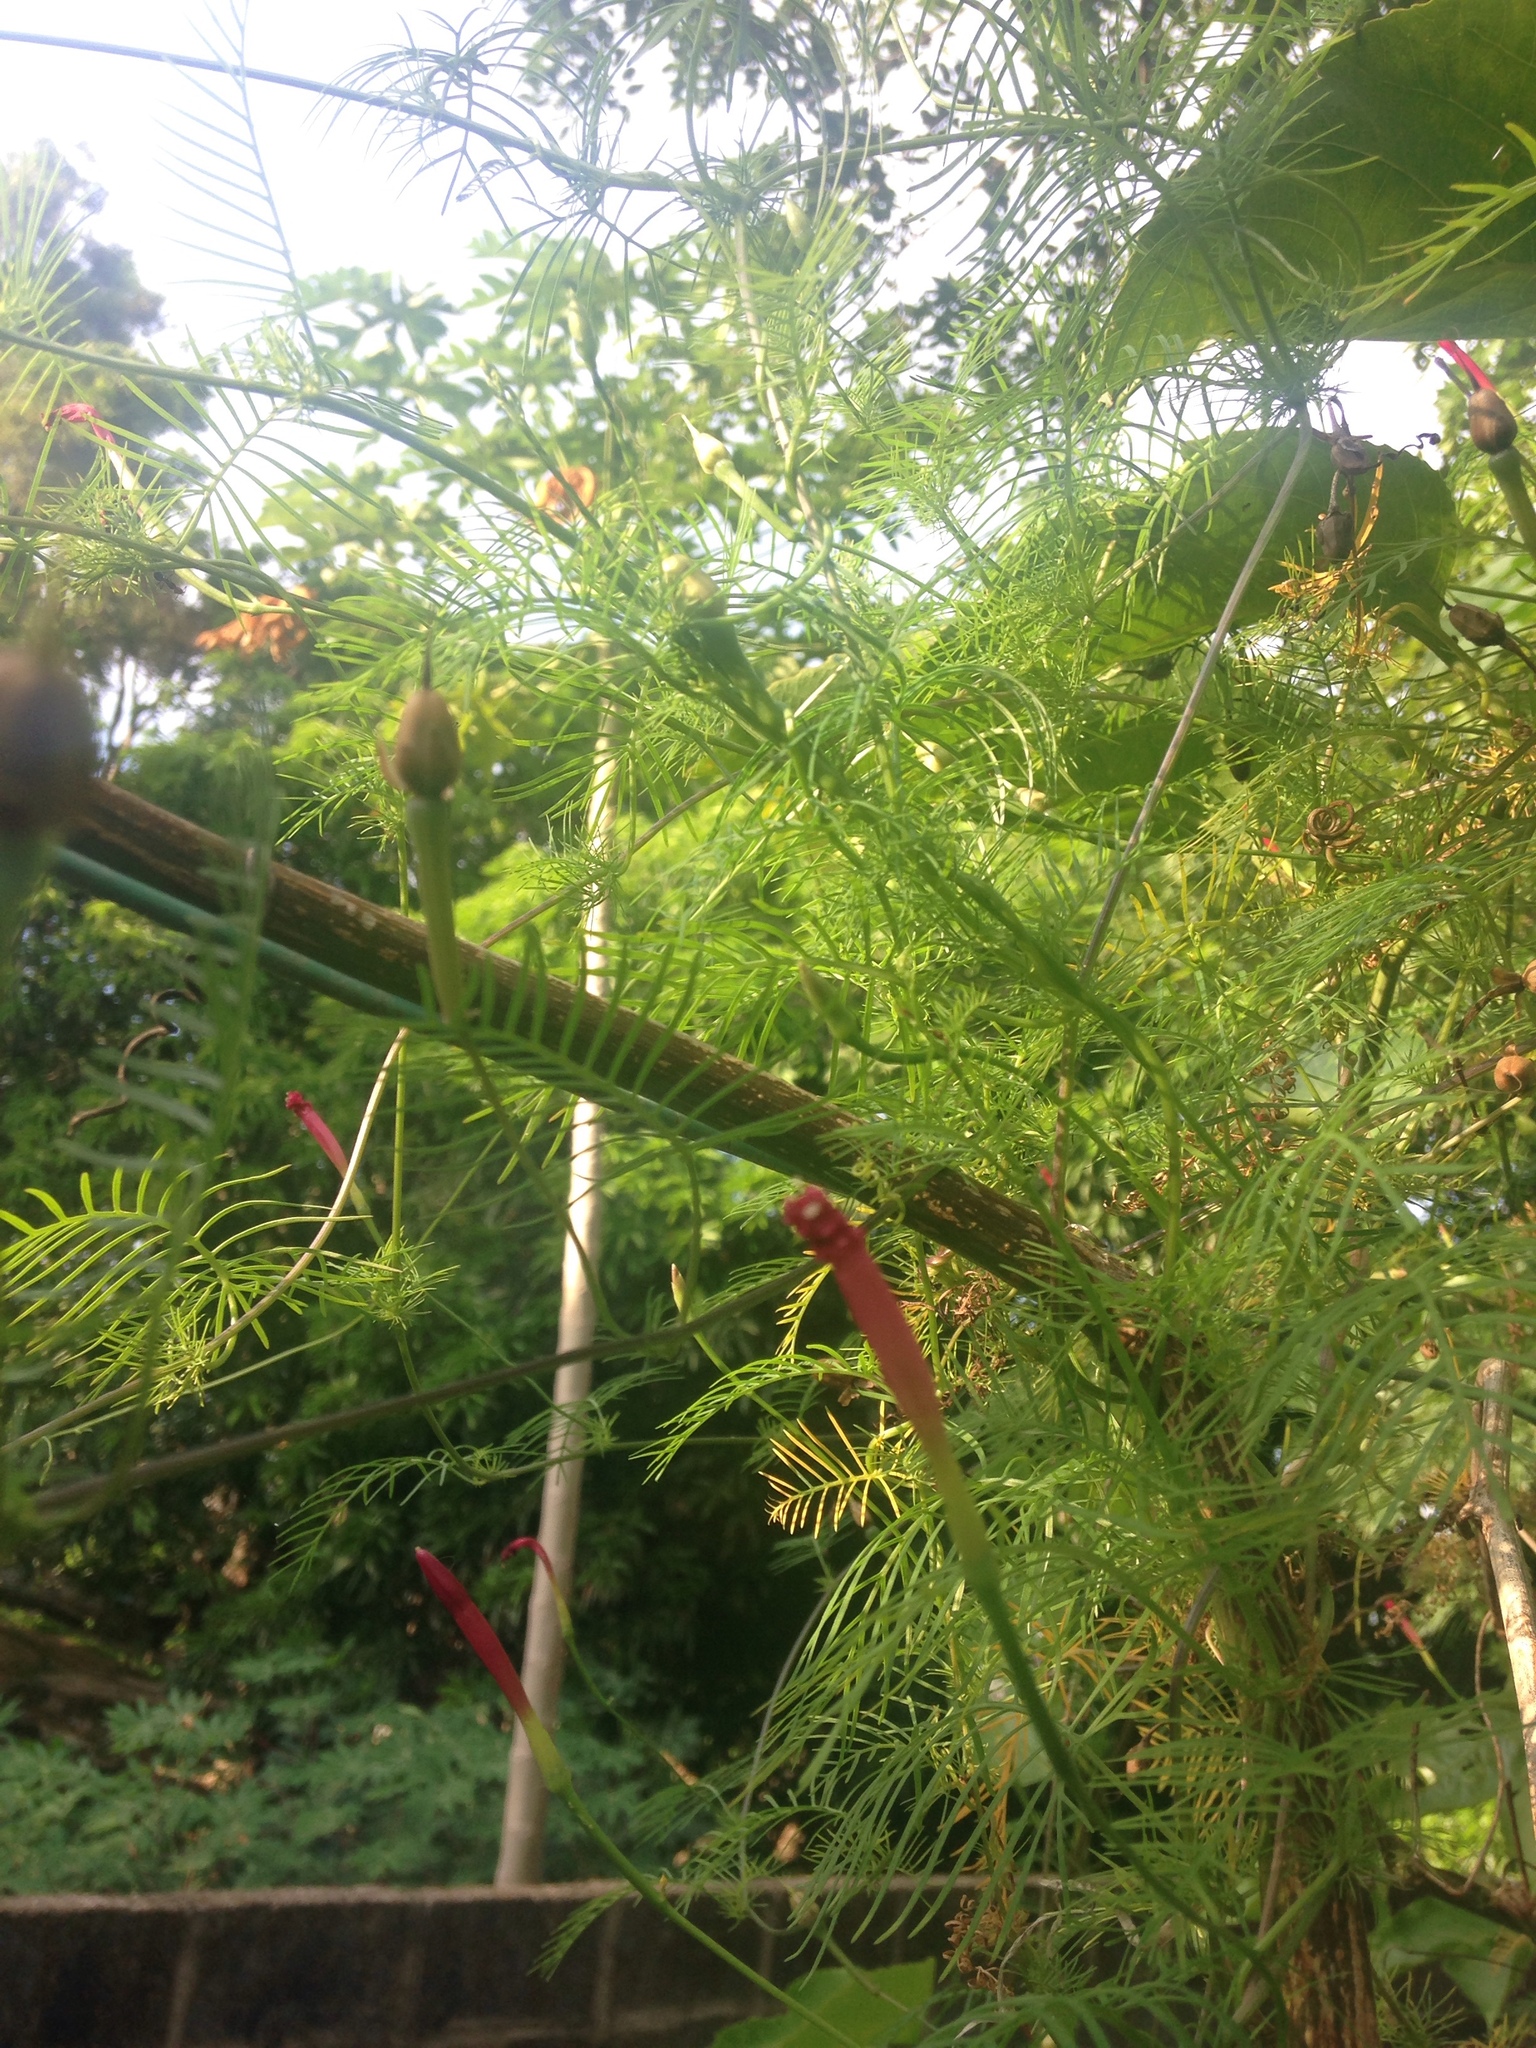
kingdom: Plantae
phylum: Tracheophyta
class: Magnoliopsida
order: Solanales
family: Convolvulaceae
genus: Ipomoea
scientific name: Ipomoea quamoclit
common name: Cypress vine
